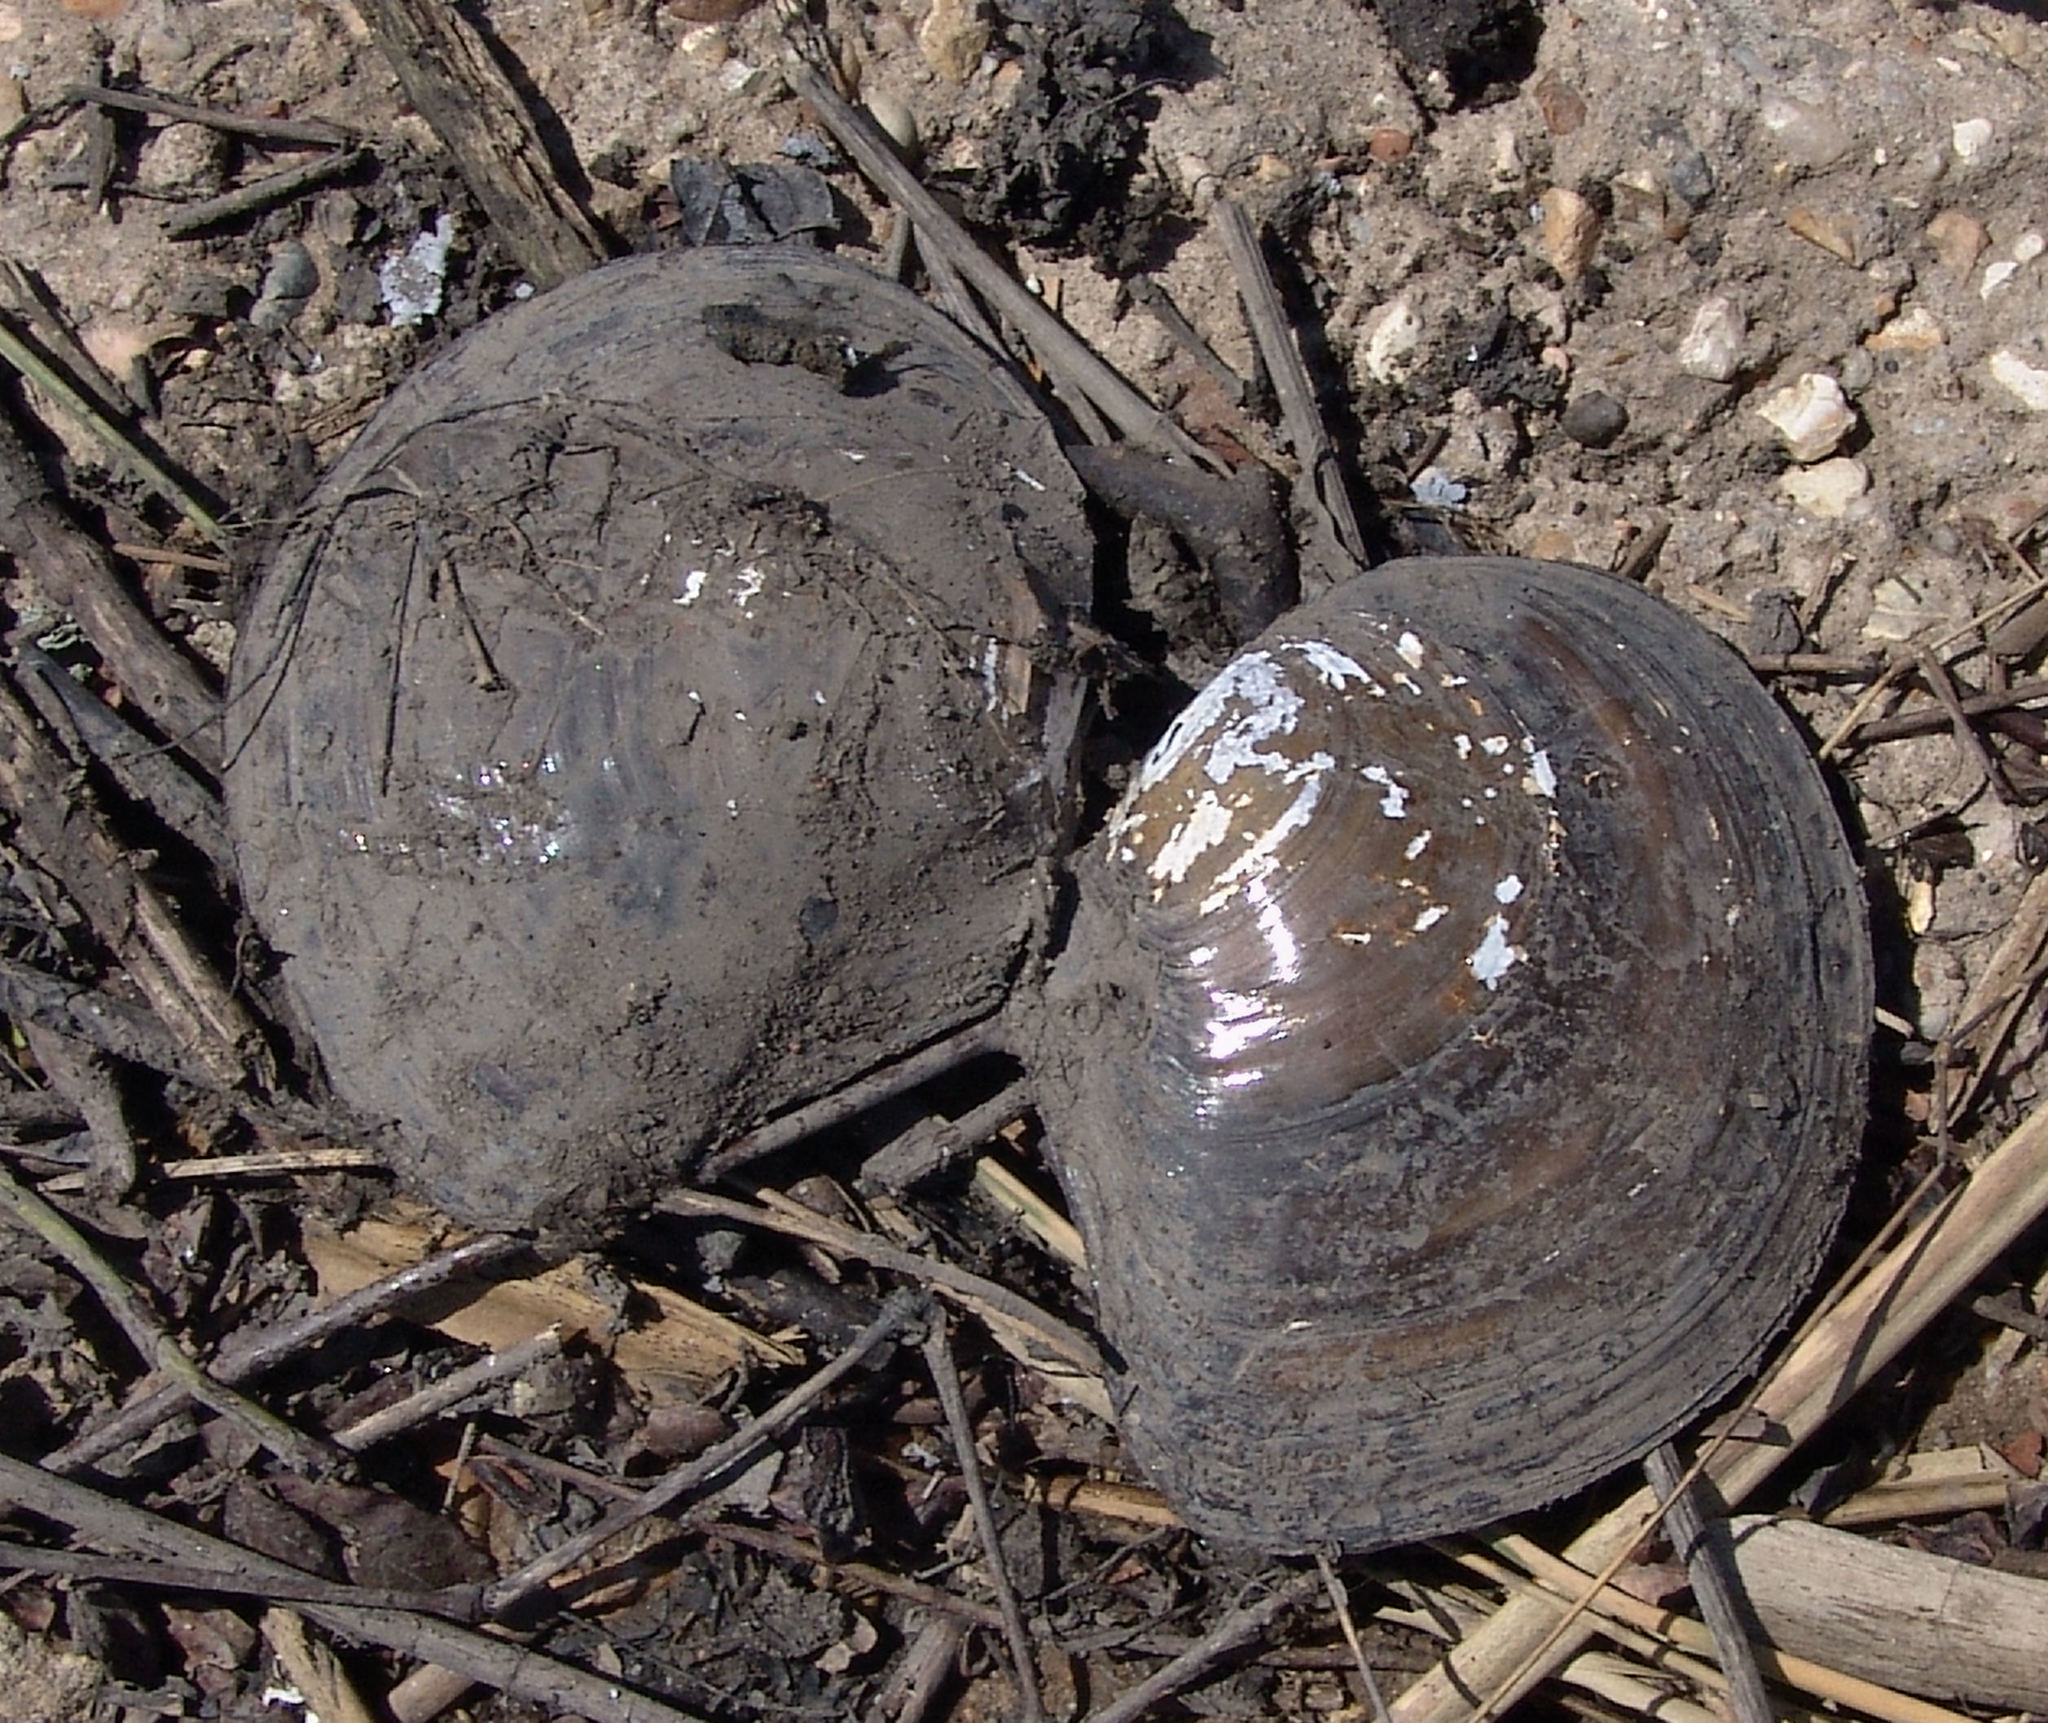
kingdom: Animalia
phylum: Mollusca
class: Bivalvia
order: Unionida
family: Unionidae
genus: Utterbackiana
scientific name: Utterbackiana suborbiculata
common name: Flat floater
